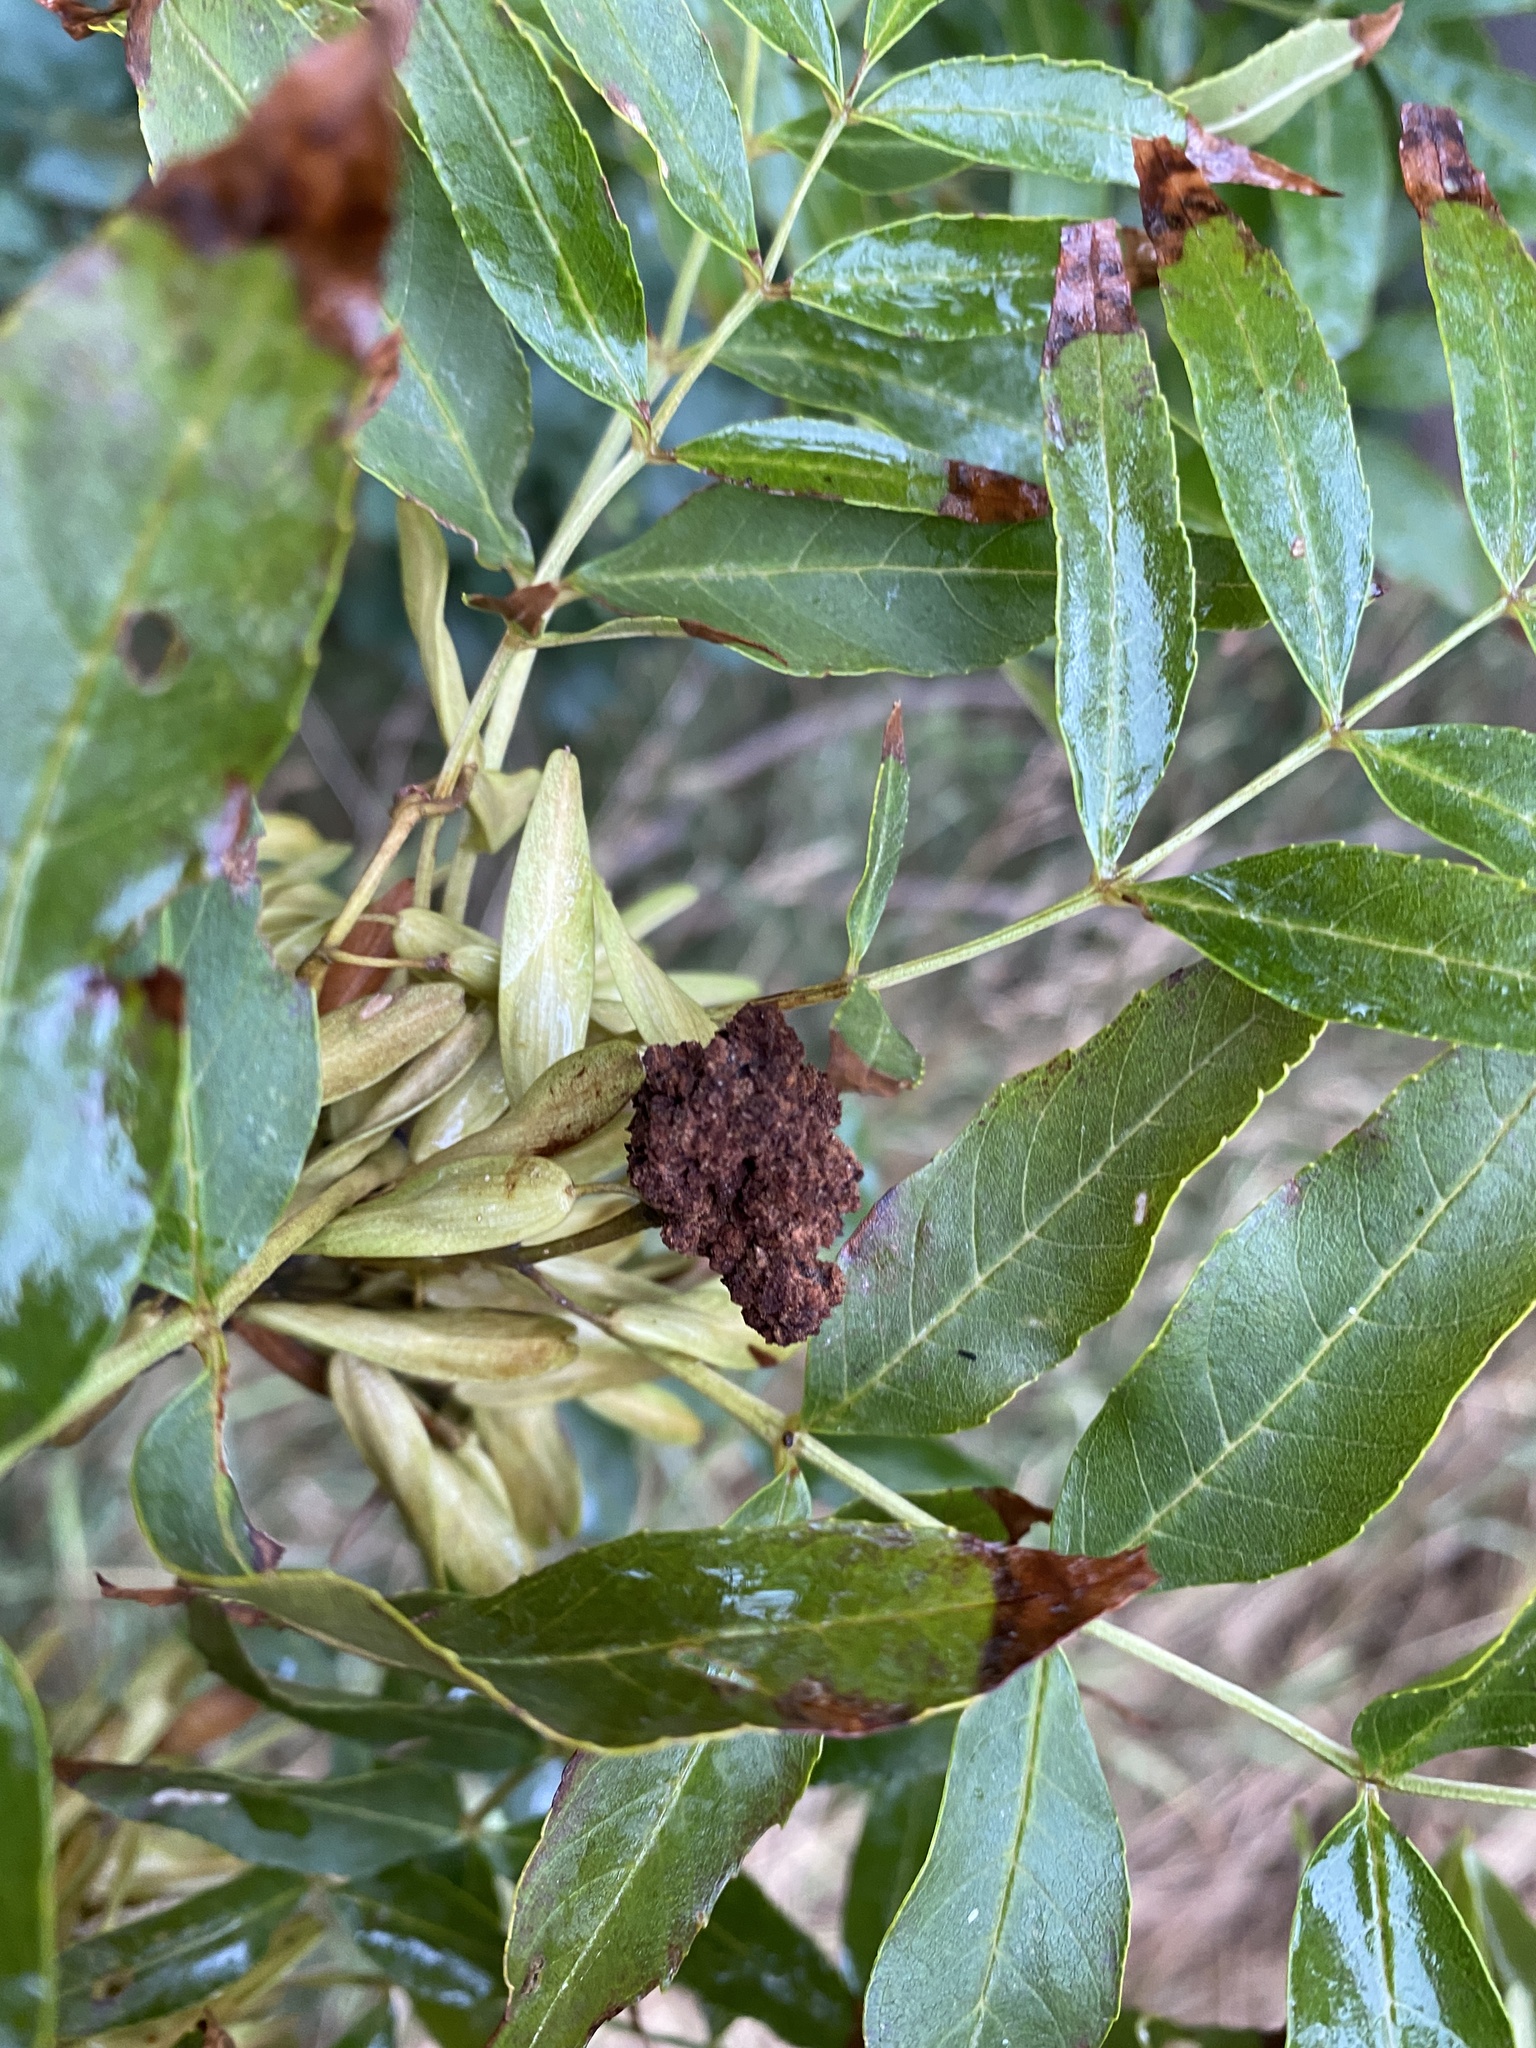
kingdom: Animalia
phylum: Arthropoda
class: Arachnida
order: Trombidiformes
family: Eriophyidae
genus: Aceria
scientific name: Aceria fraxinivora
